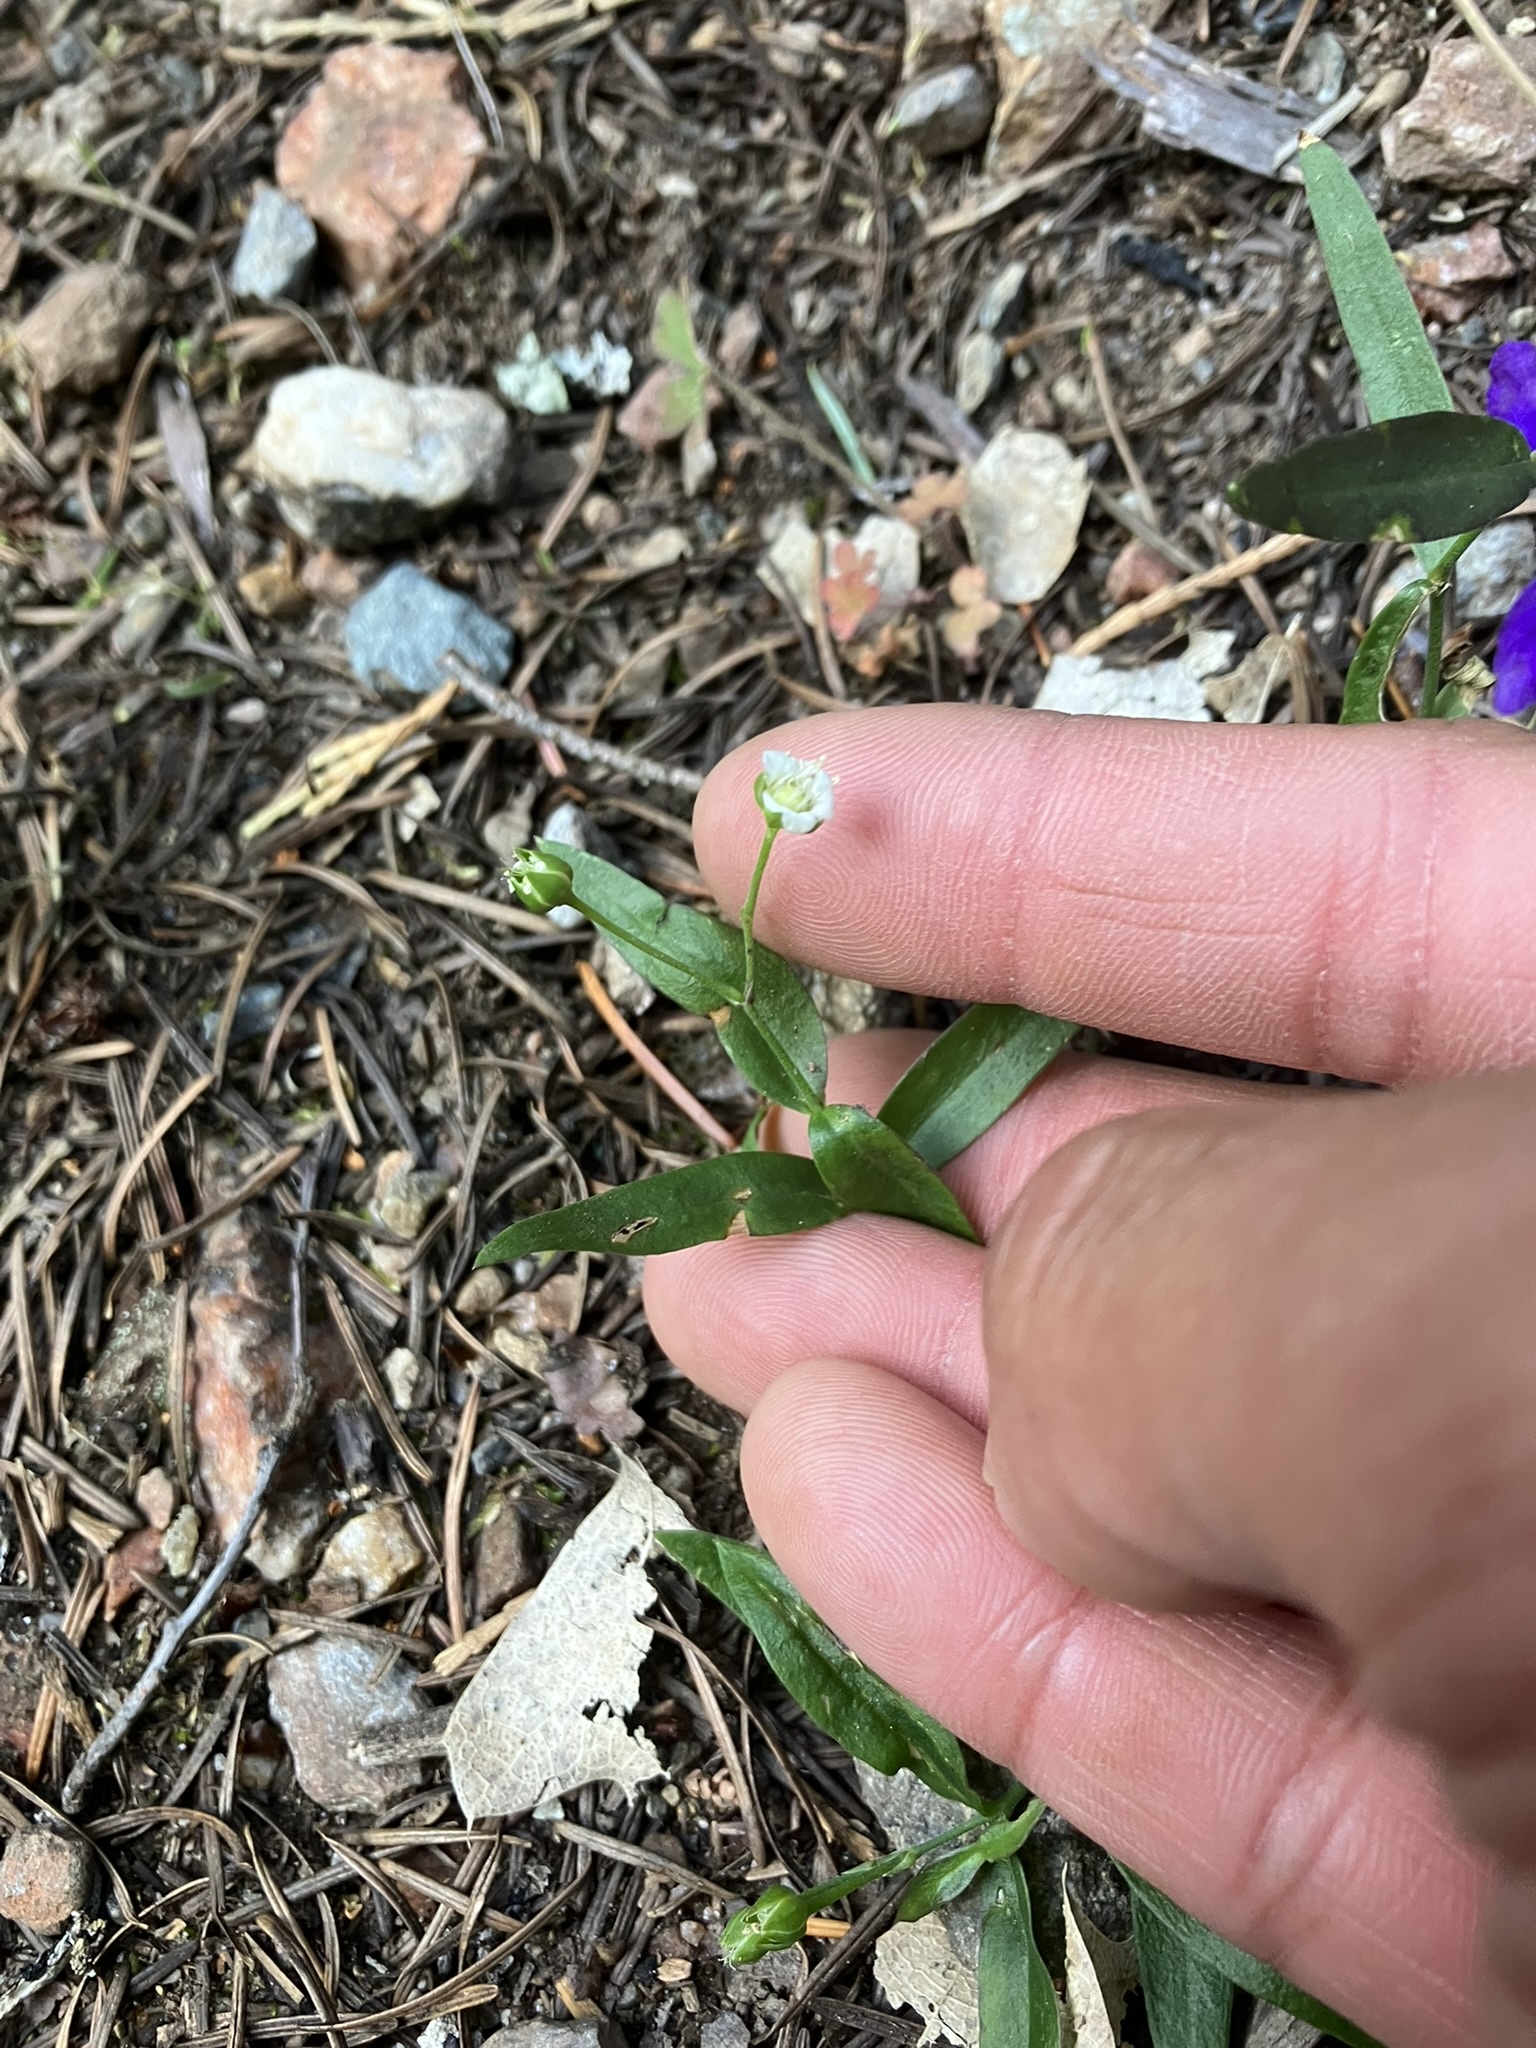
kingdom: Plantae
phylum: Tracheophyta
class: Magnoliopsida
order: Caryophyllales
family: Caryophyllaceae
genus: Moehringia
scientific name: Moehringia macrophylla
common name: Big-leaf sandwort
